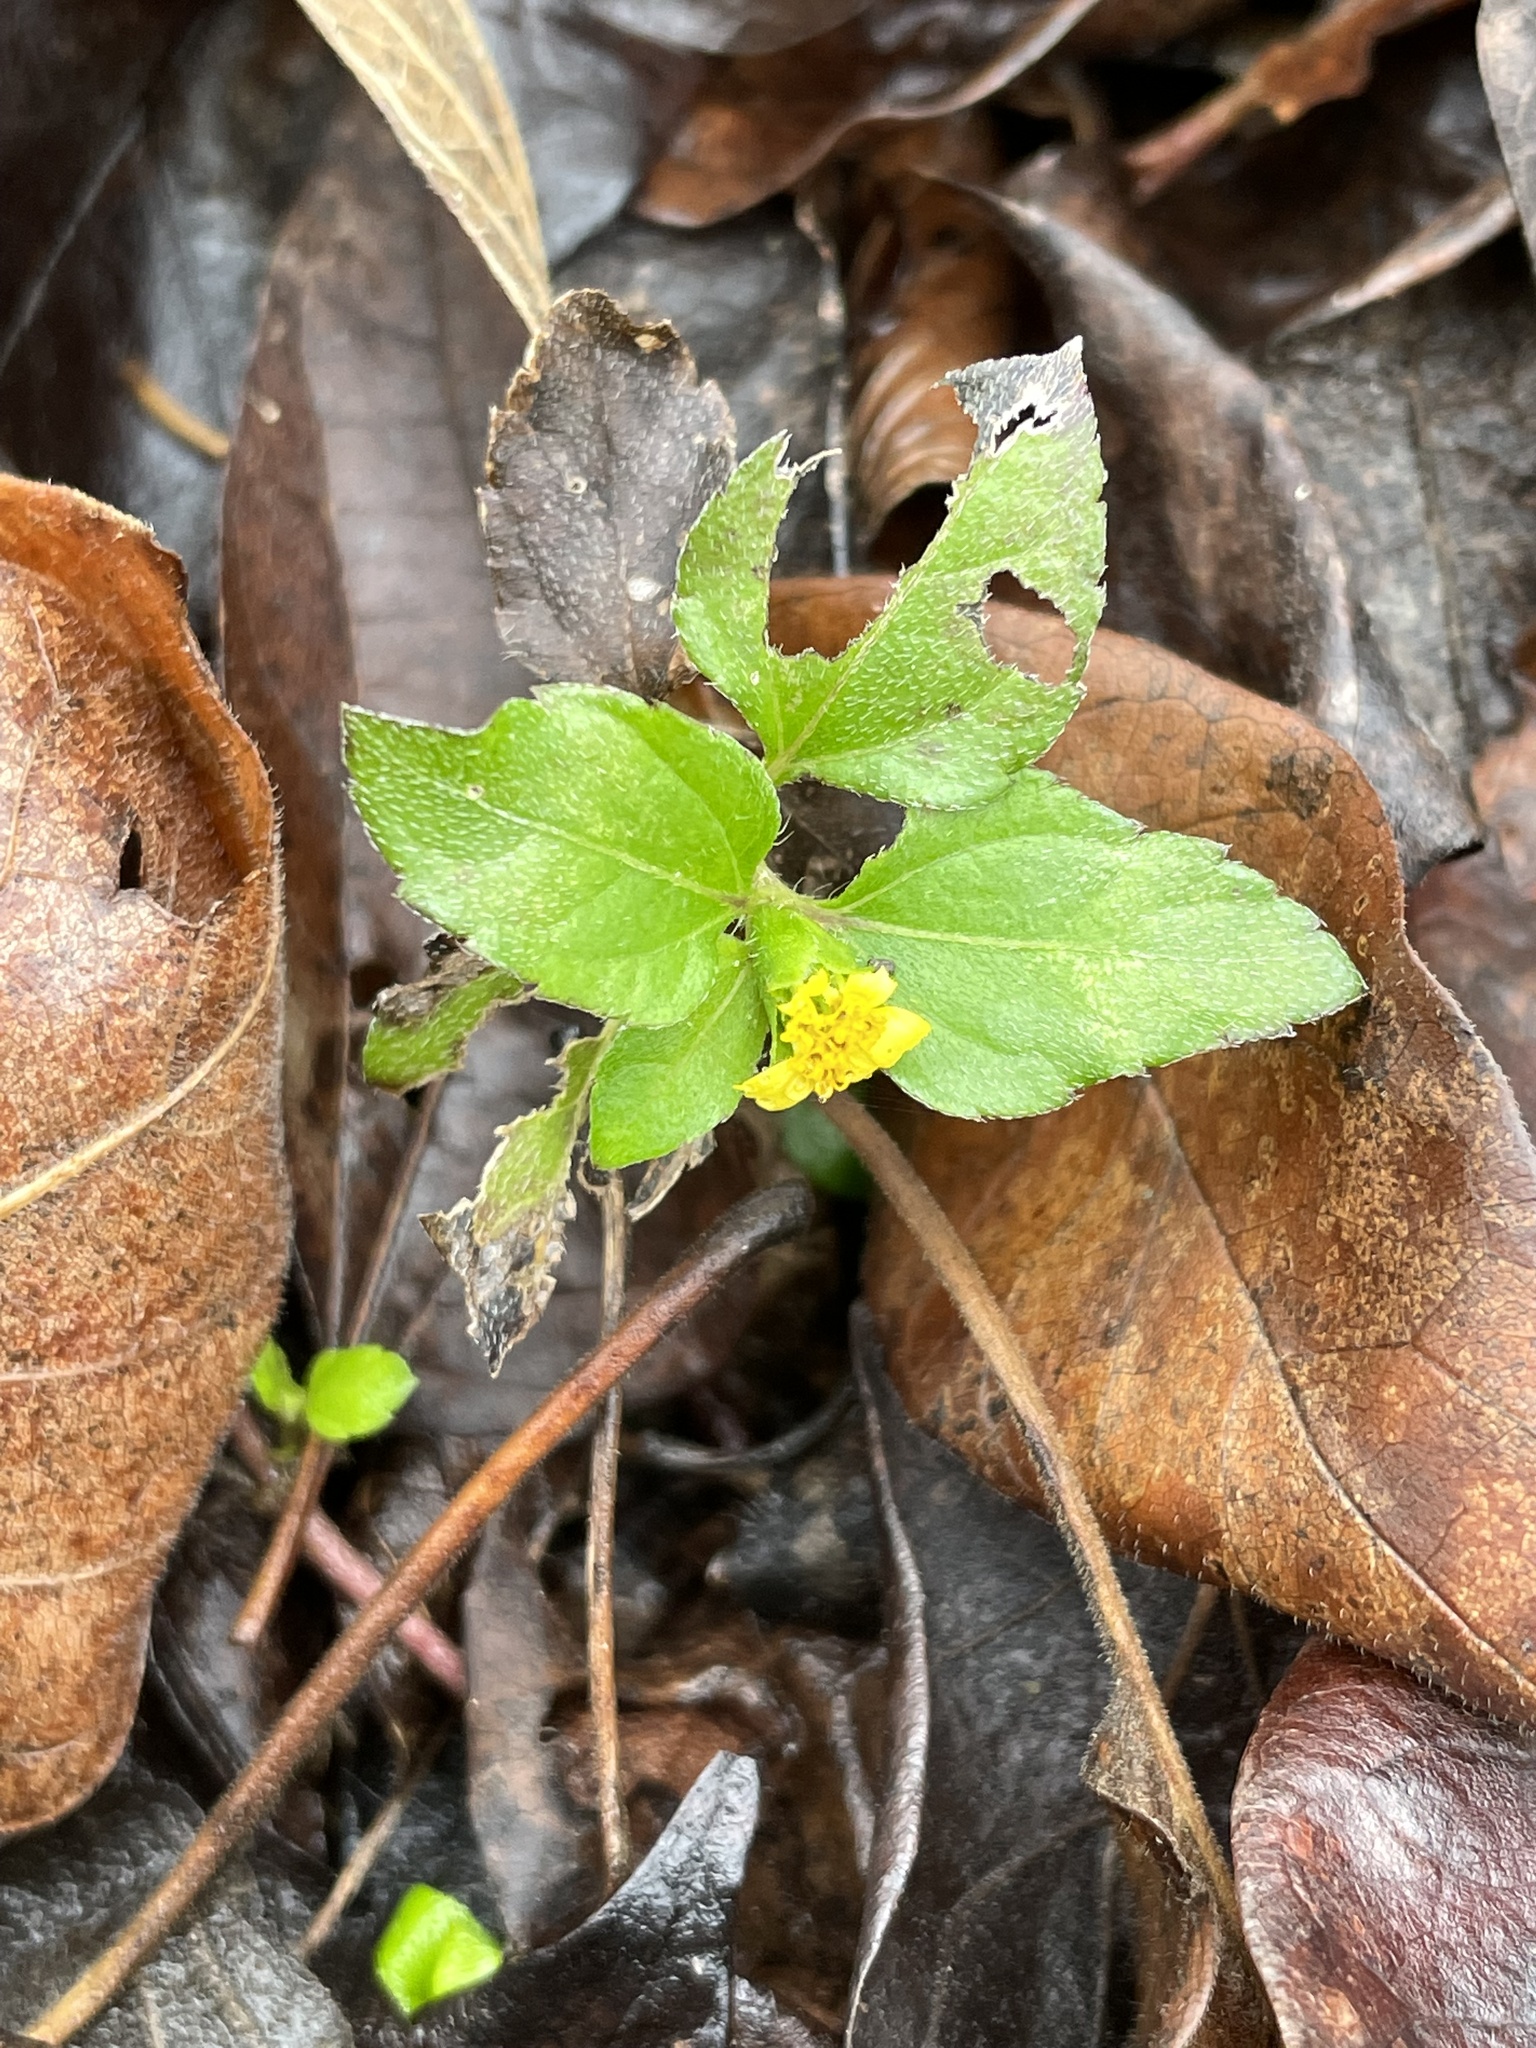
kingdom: Plantae
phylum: Tracheophyta
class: Magnoliopsida
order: Asterales
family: Asteraceae
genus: Calyptocarpus
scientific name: Calyptocarpus vialis
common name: Straggler daisy
